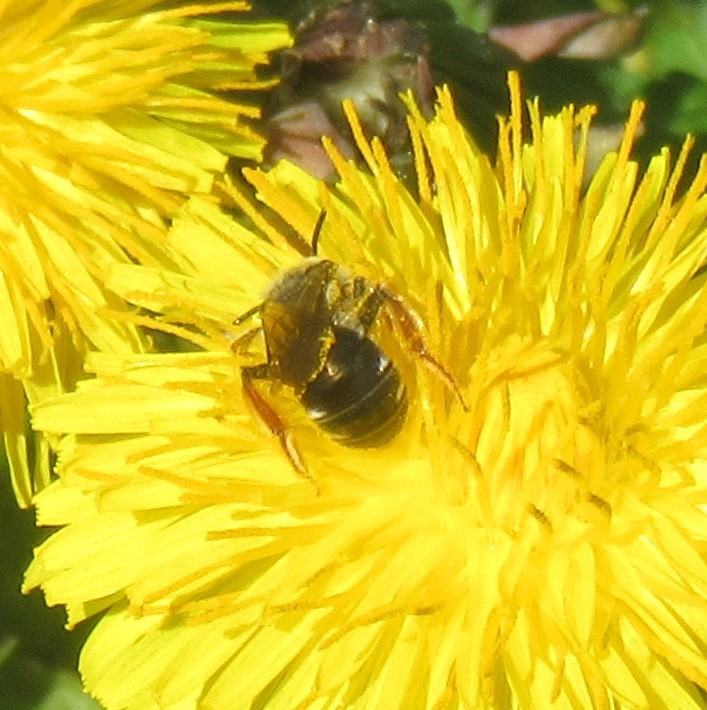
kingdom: Animalia
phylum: Arthropoda
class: Insecta
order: Hymenoptera
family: Andrenidae
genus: Andrena
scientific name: Andrena hippotes
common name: Hippotes's miner bee
